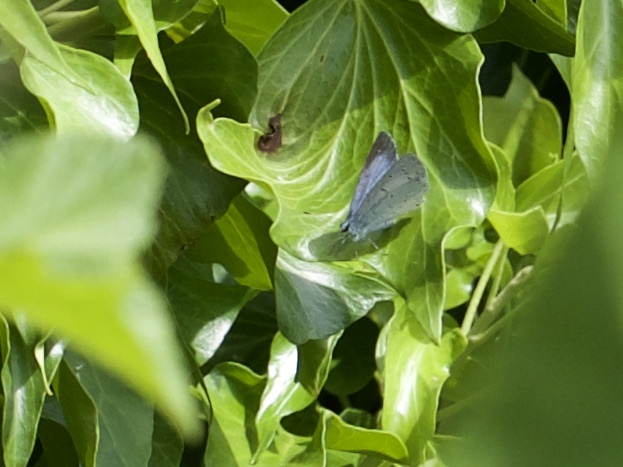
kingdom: Animalia
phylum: Arthropoda
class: Insecta
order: Lepidoptera
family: Lycaenidae
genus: Celastrina
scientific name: Celastrina argiolus
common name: Holly blue
